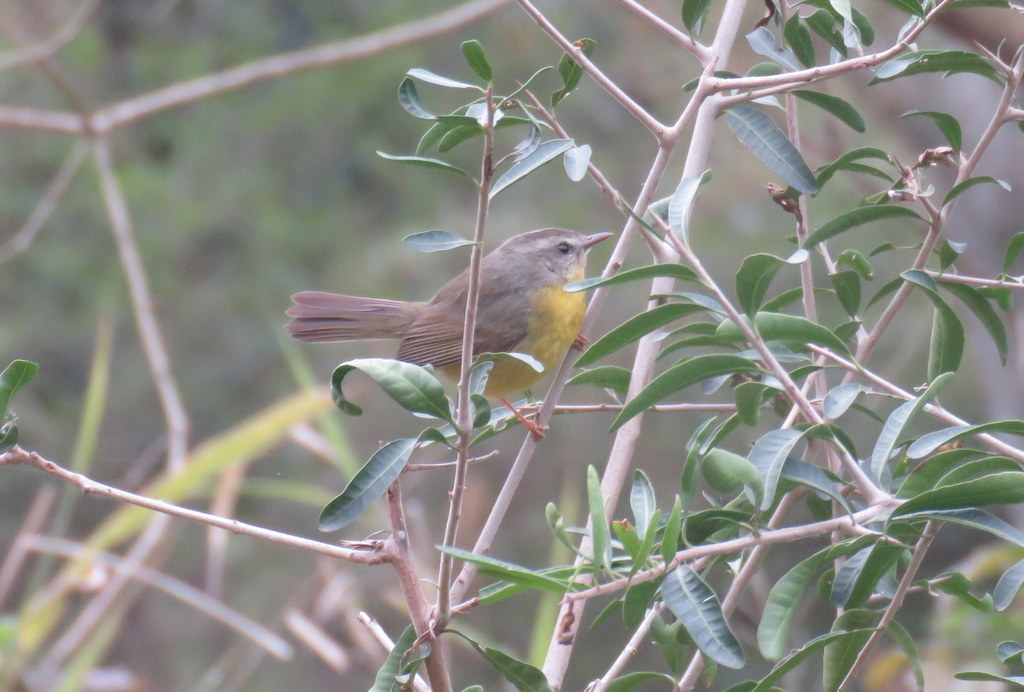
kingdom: Animalia
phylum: Chordata
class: Aves
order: Passeriformes
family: Parulidae
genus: Basileuterus
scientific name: Basileuterus culicivorus
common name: Golden-crowned warbler
